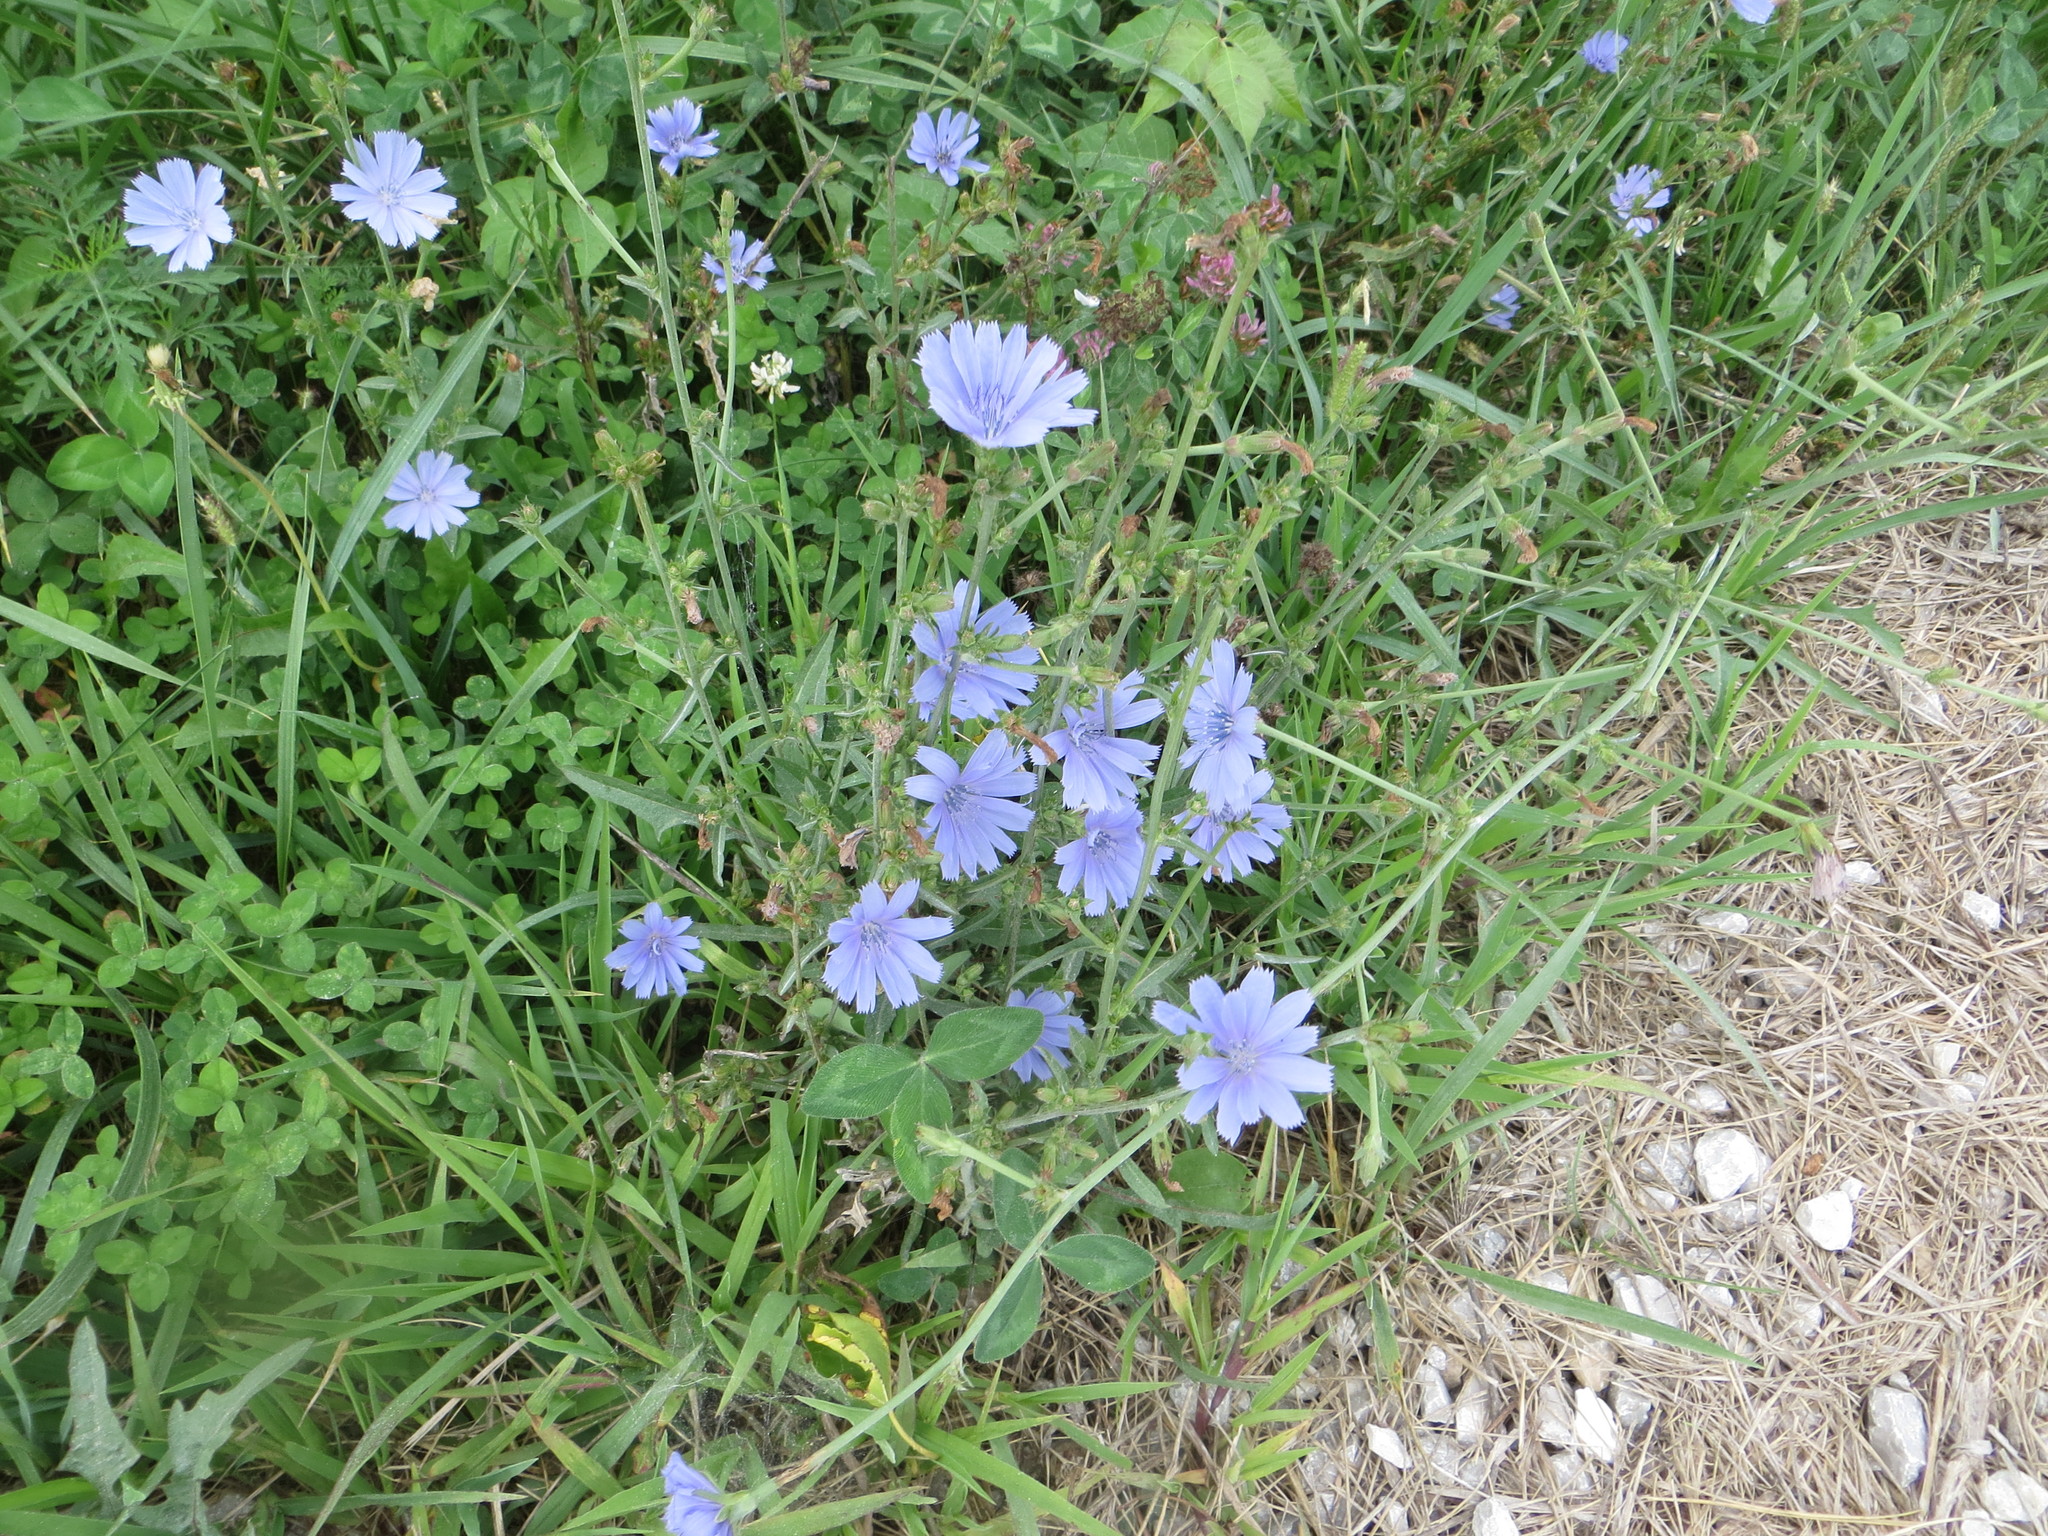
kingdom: Plantae
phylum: Tracheophyta
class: Magnoliopsida
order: Asterales
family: Asteraceae
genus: Cichorium
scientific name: Cichorium intybus
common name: Chicory
